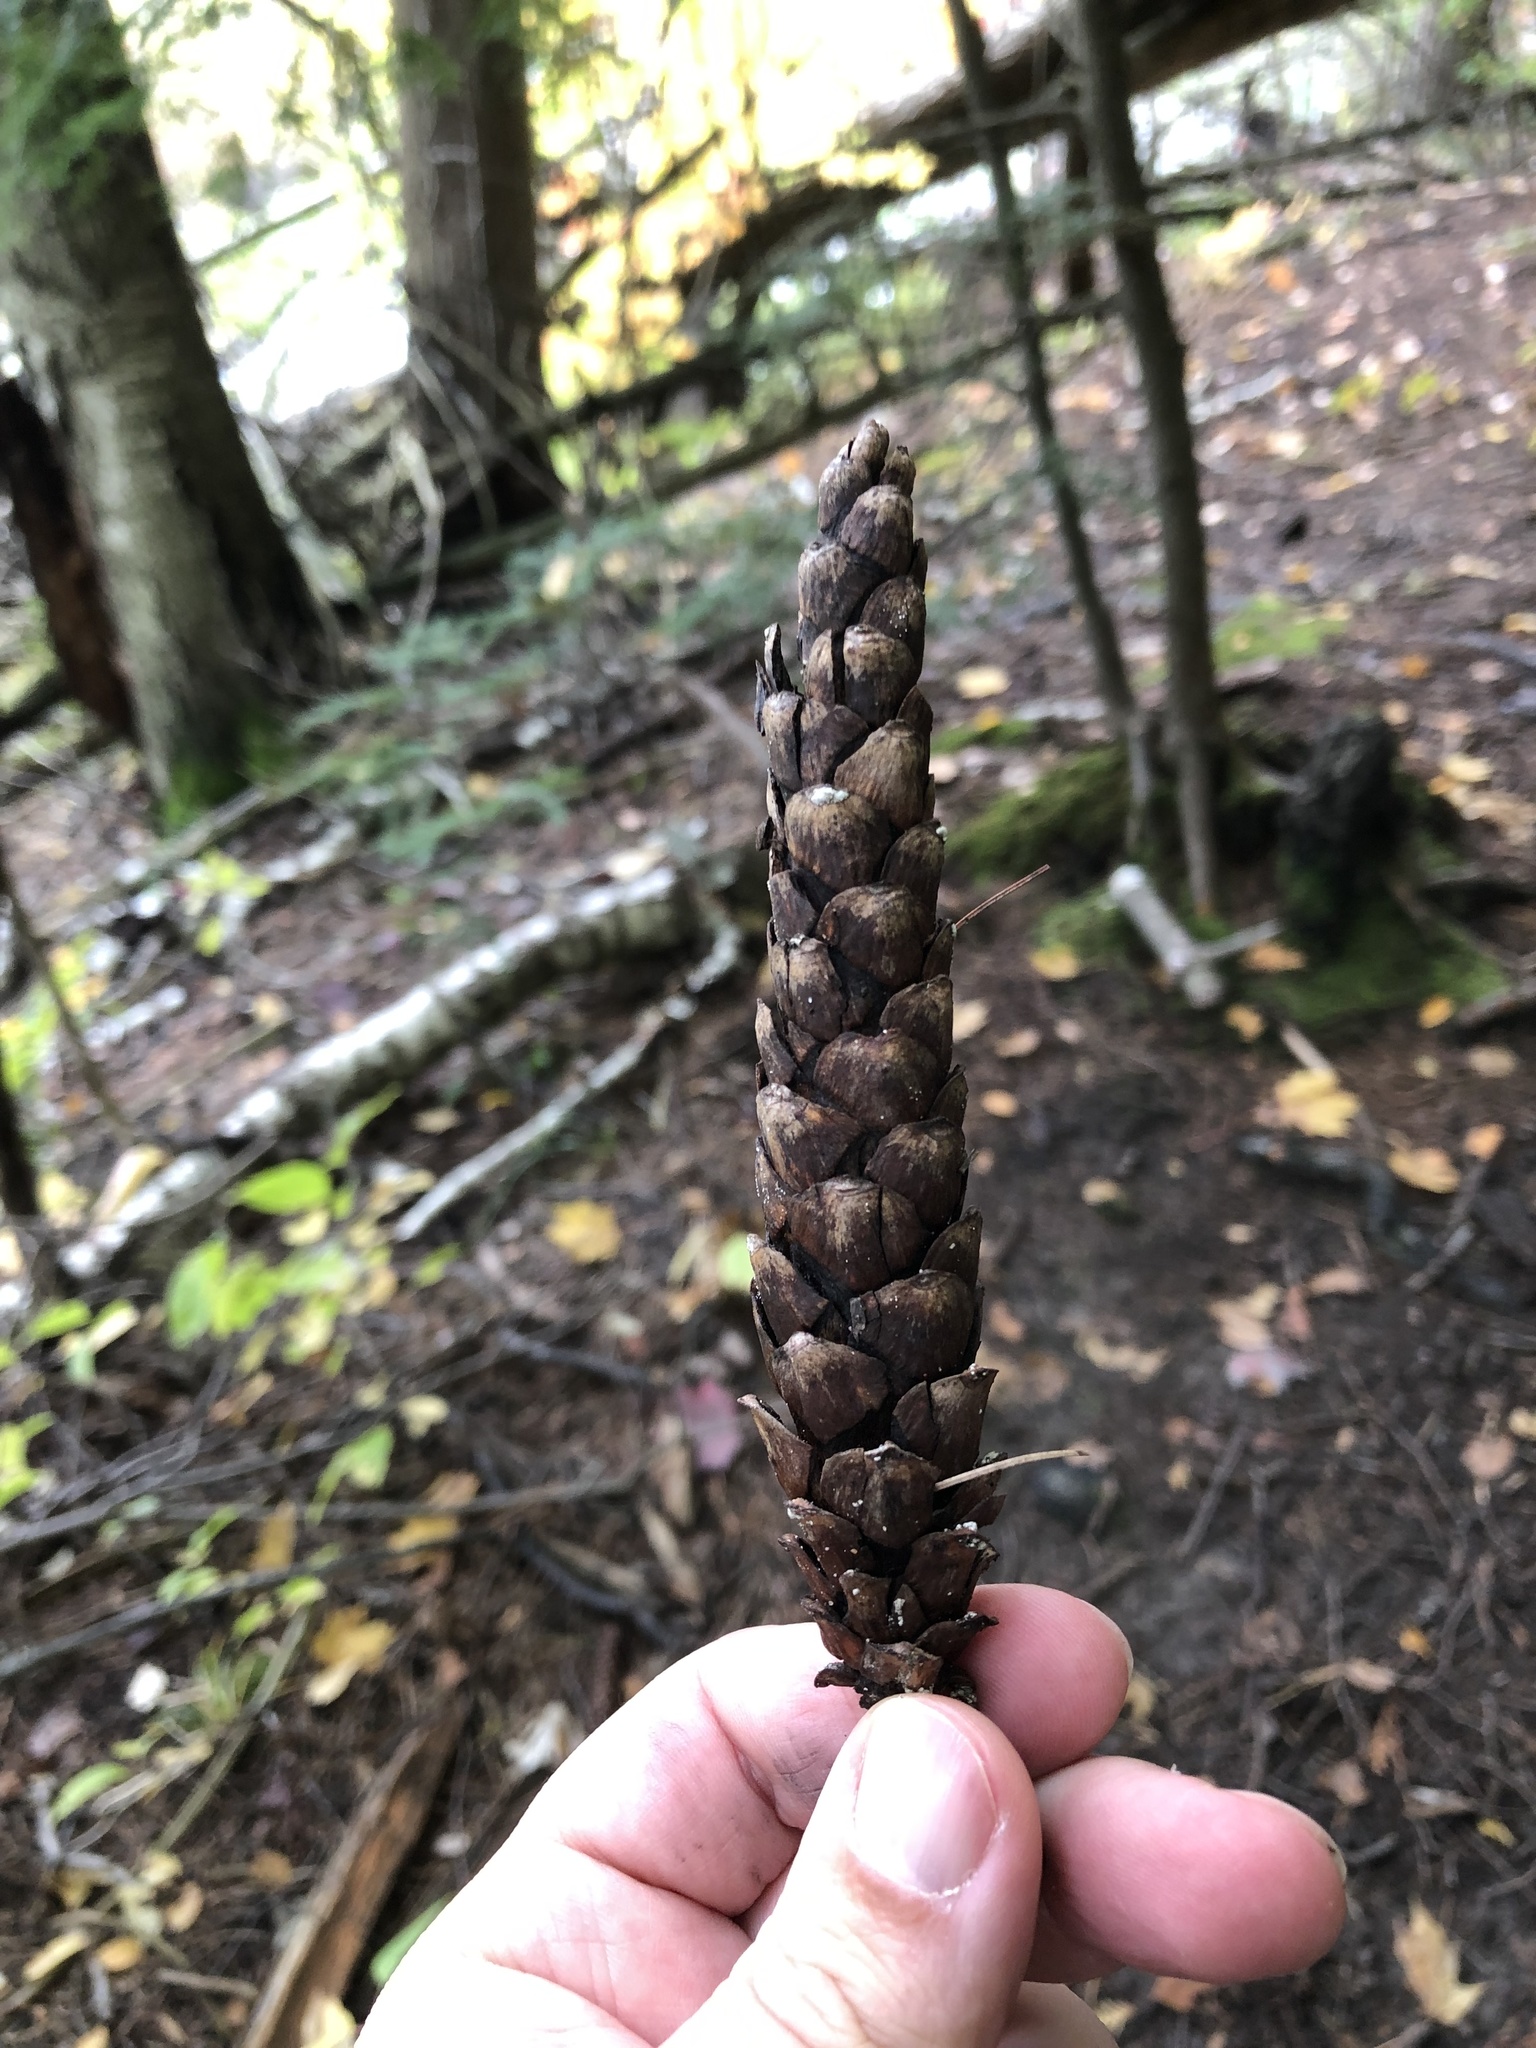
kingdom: Plantae
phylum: Tracheophyta
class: Pinopsida
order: Pinales
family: Pinaceae
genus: Pinus
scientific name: Pinus strobus
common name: Weymouth pine
